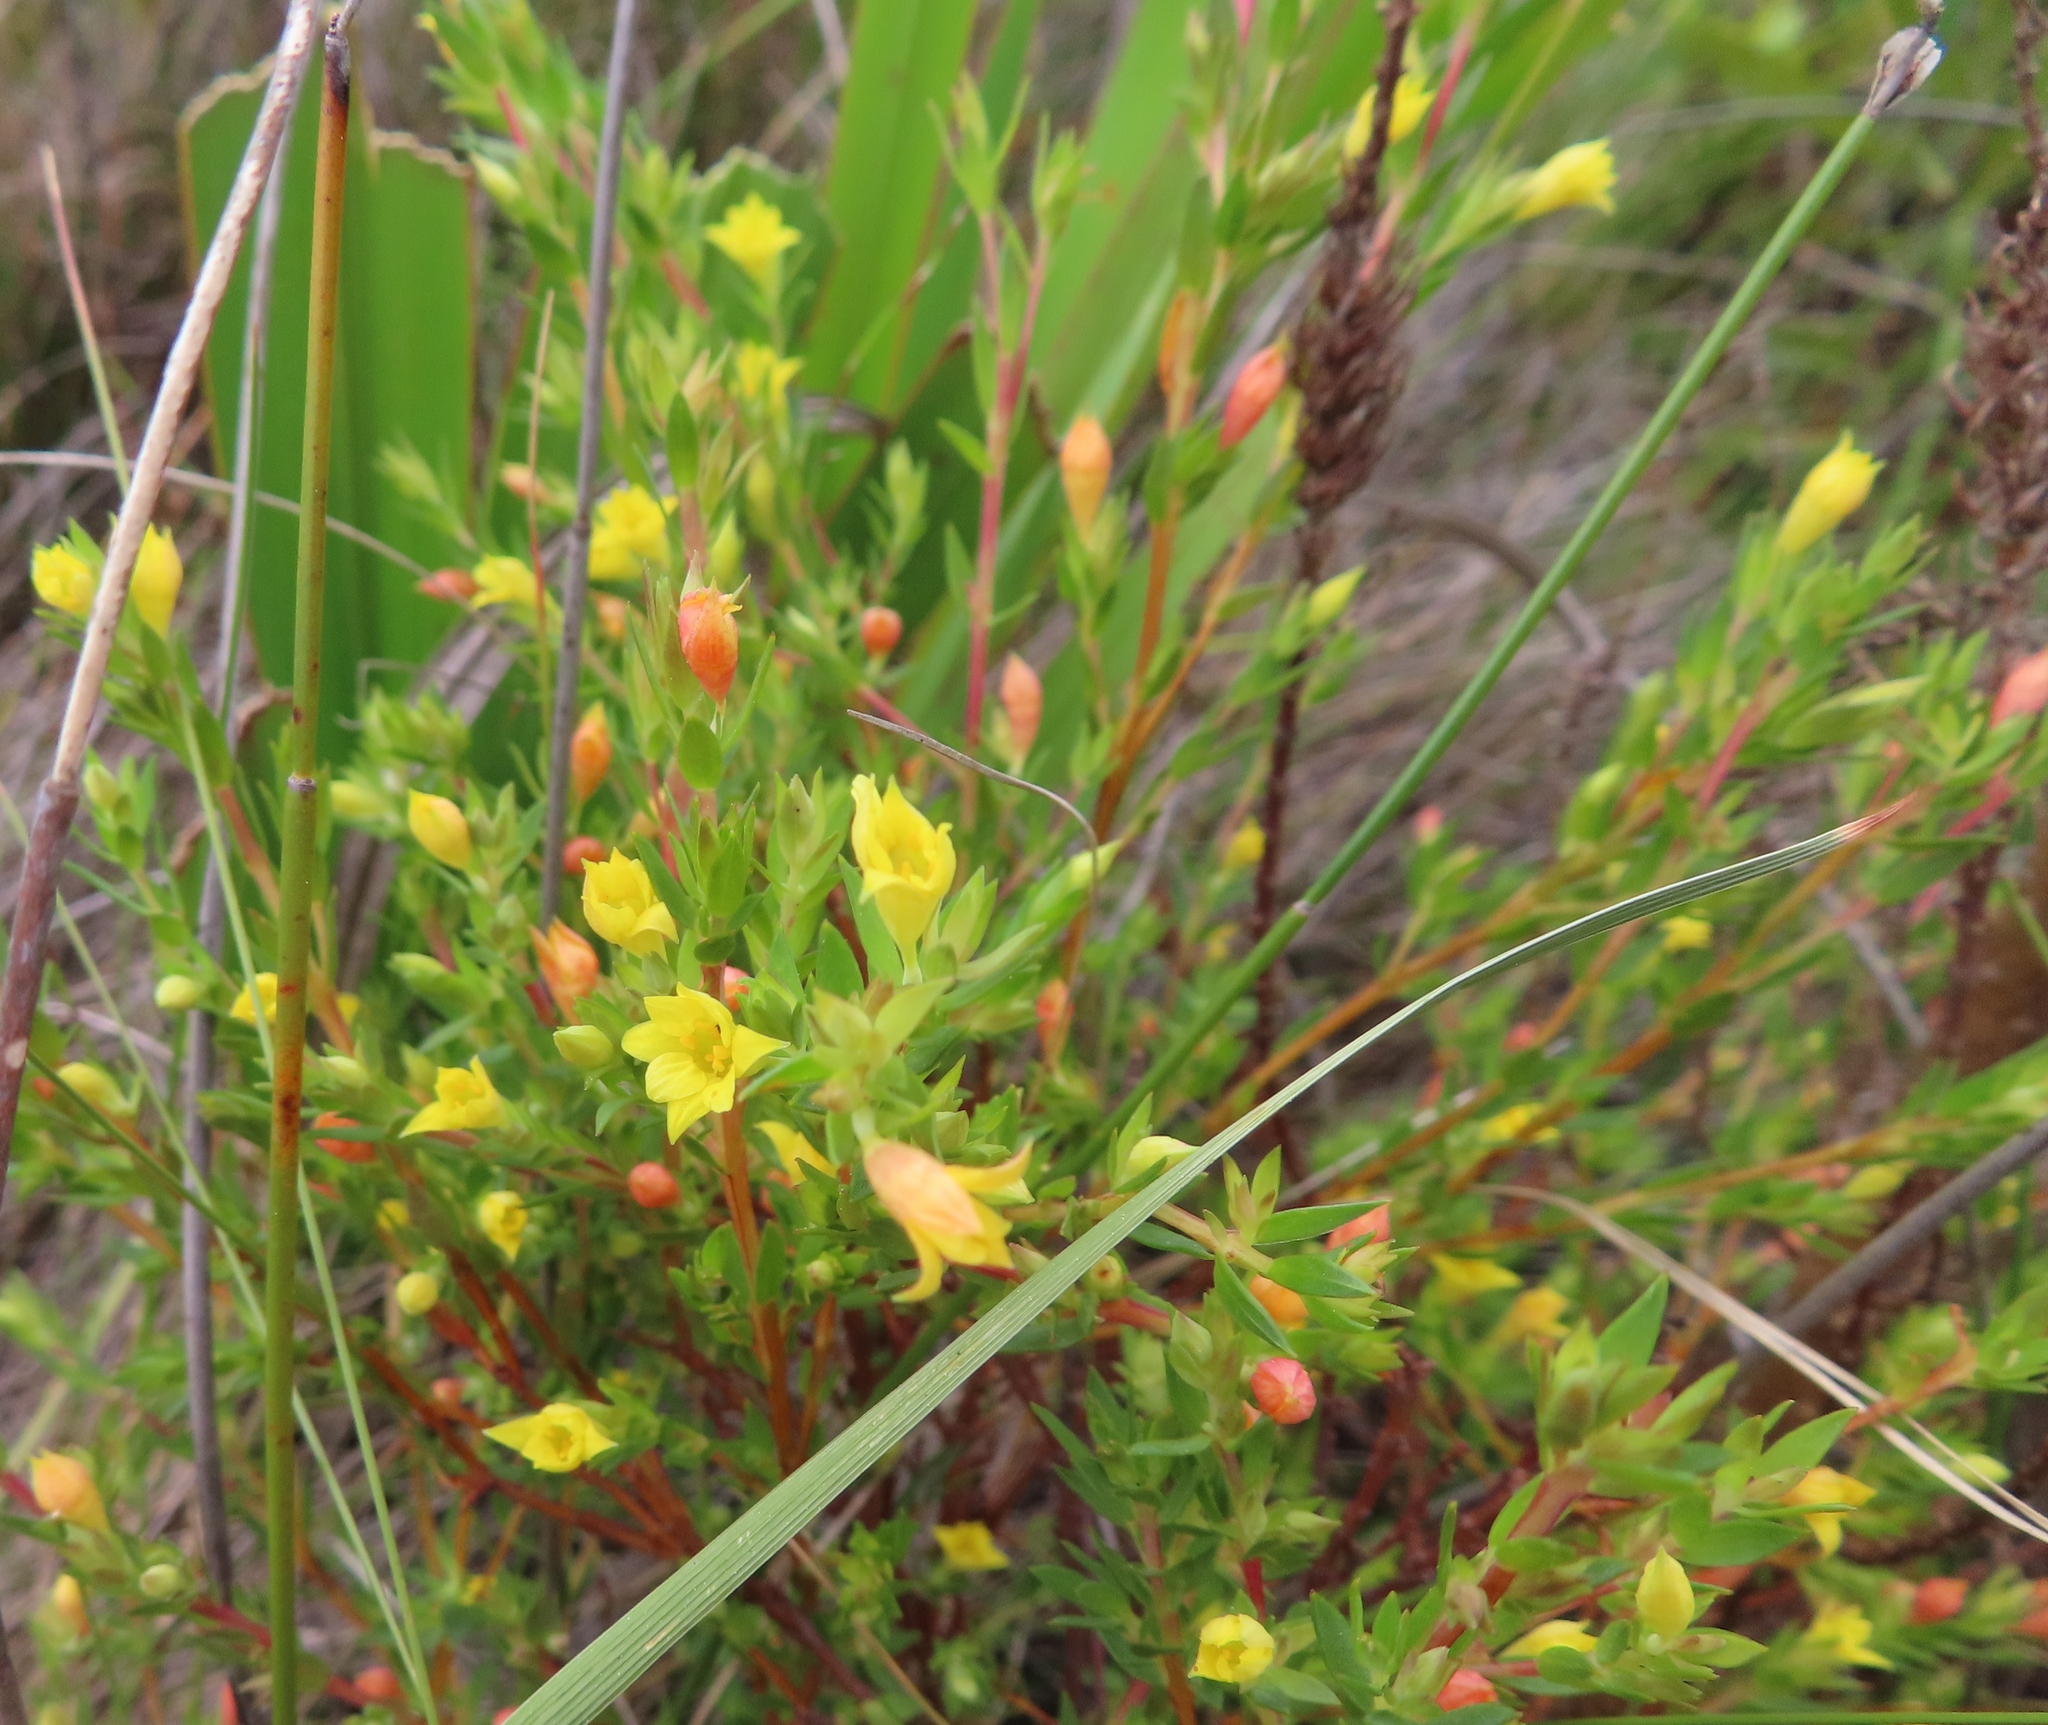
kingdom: Plantae
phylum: Tracheophyta
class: Magnoliopsida
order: Malvales
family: Thymelaeaceae
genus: Gnidia
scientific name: Gnidia juniperifolia
